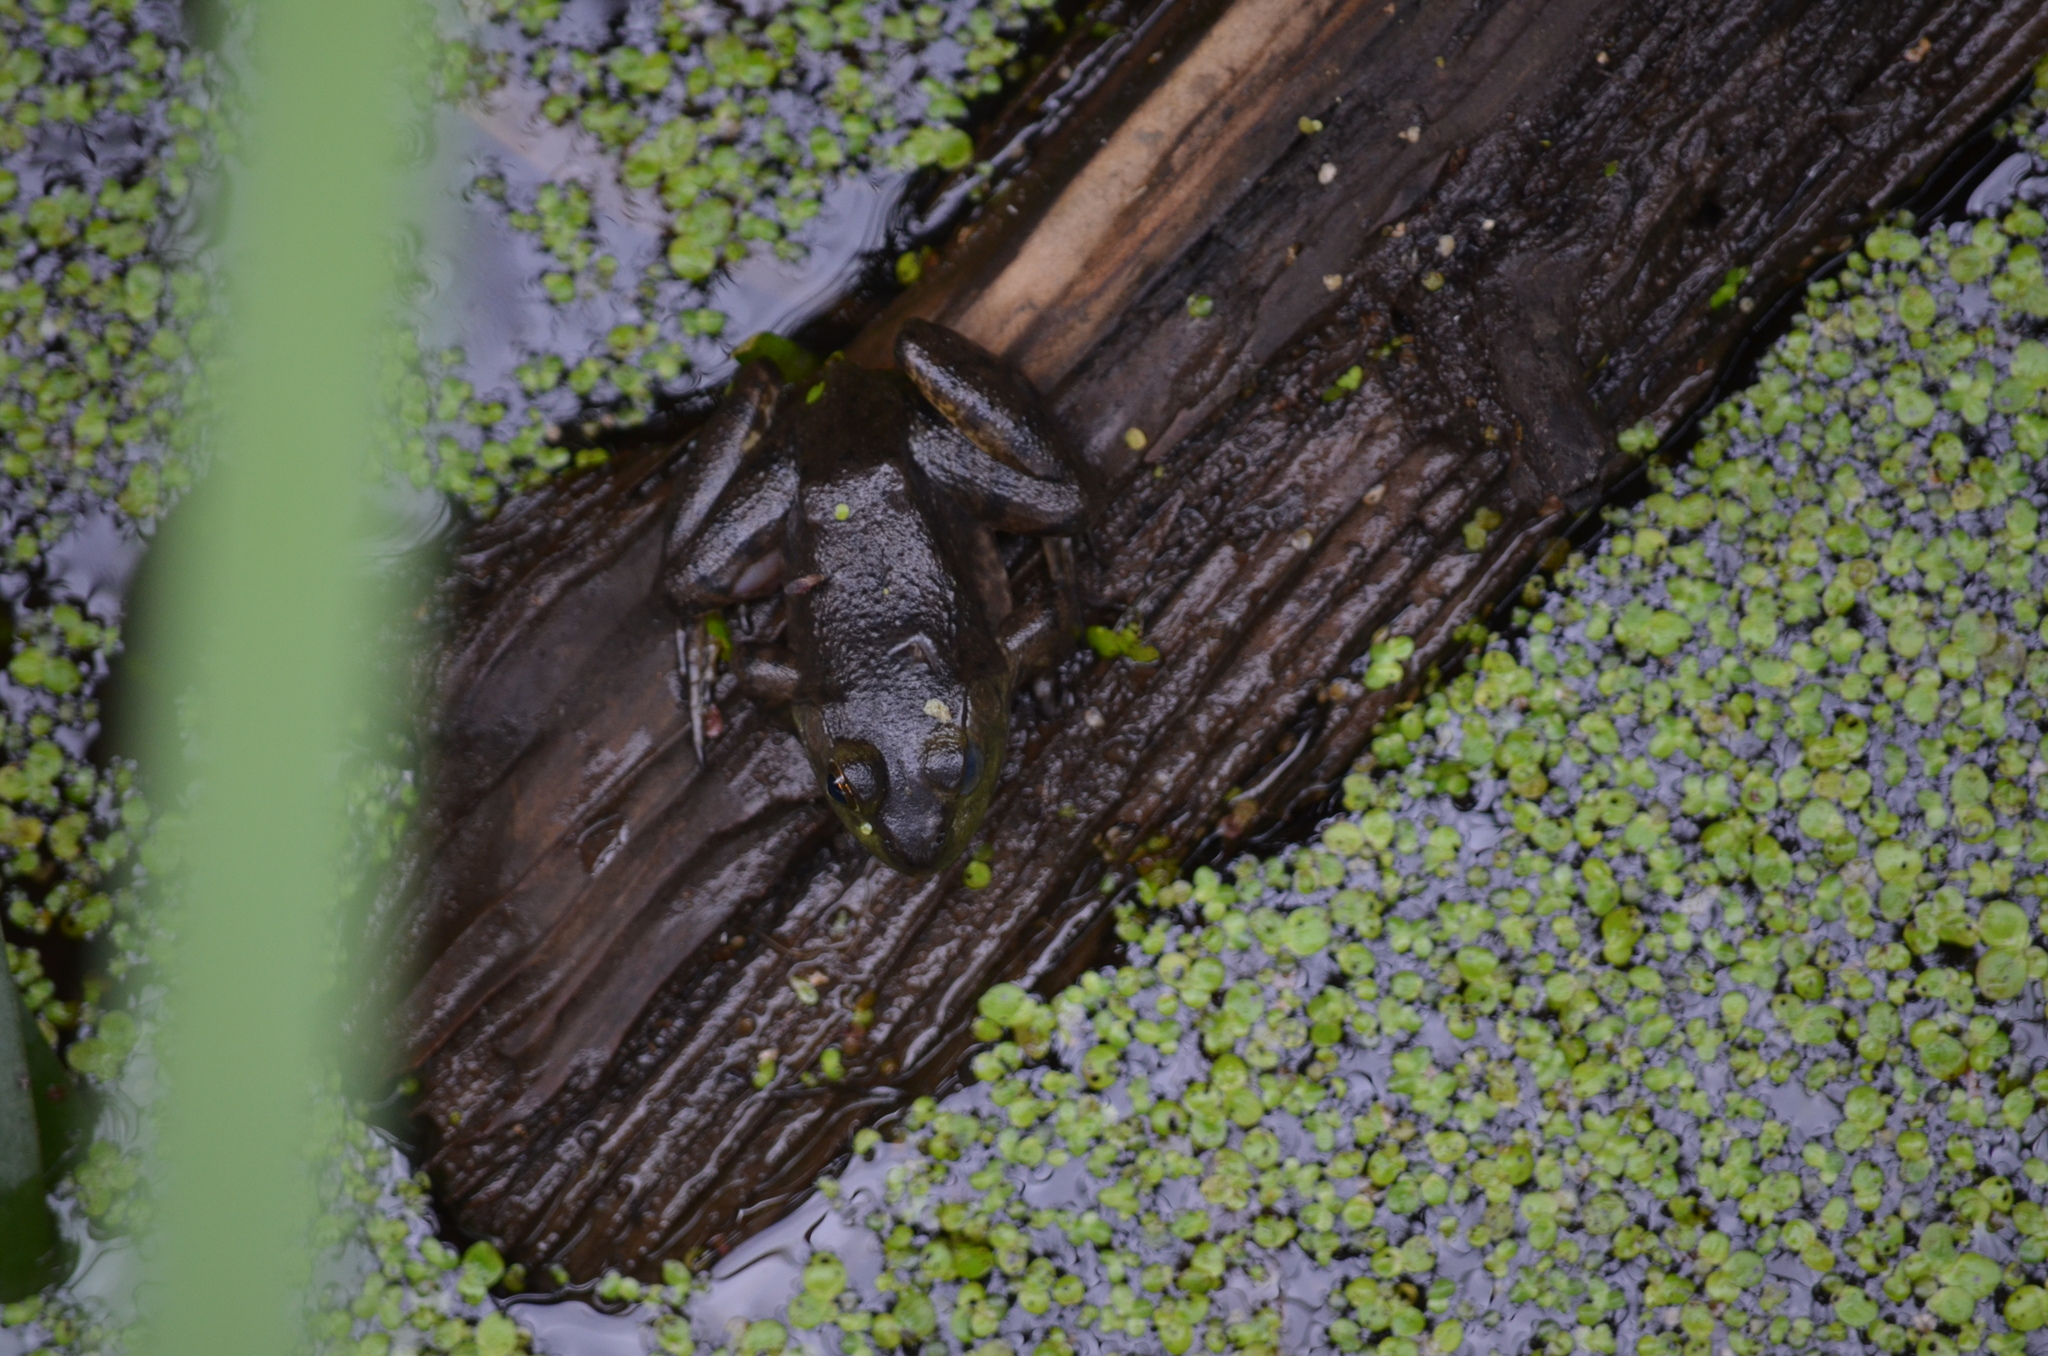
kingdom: Animalia
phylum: Chordata
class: Amphibia
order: Anura
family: Ranidae
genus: Lithobates
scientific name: Lithobates catesbeianus
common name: American bullfrog
